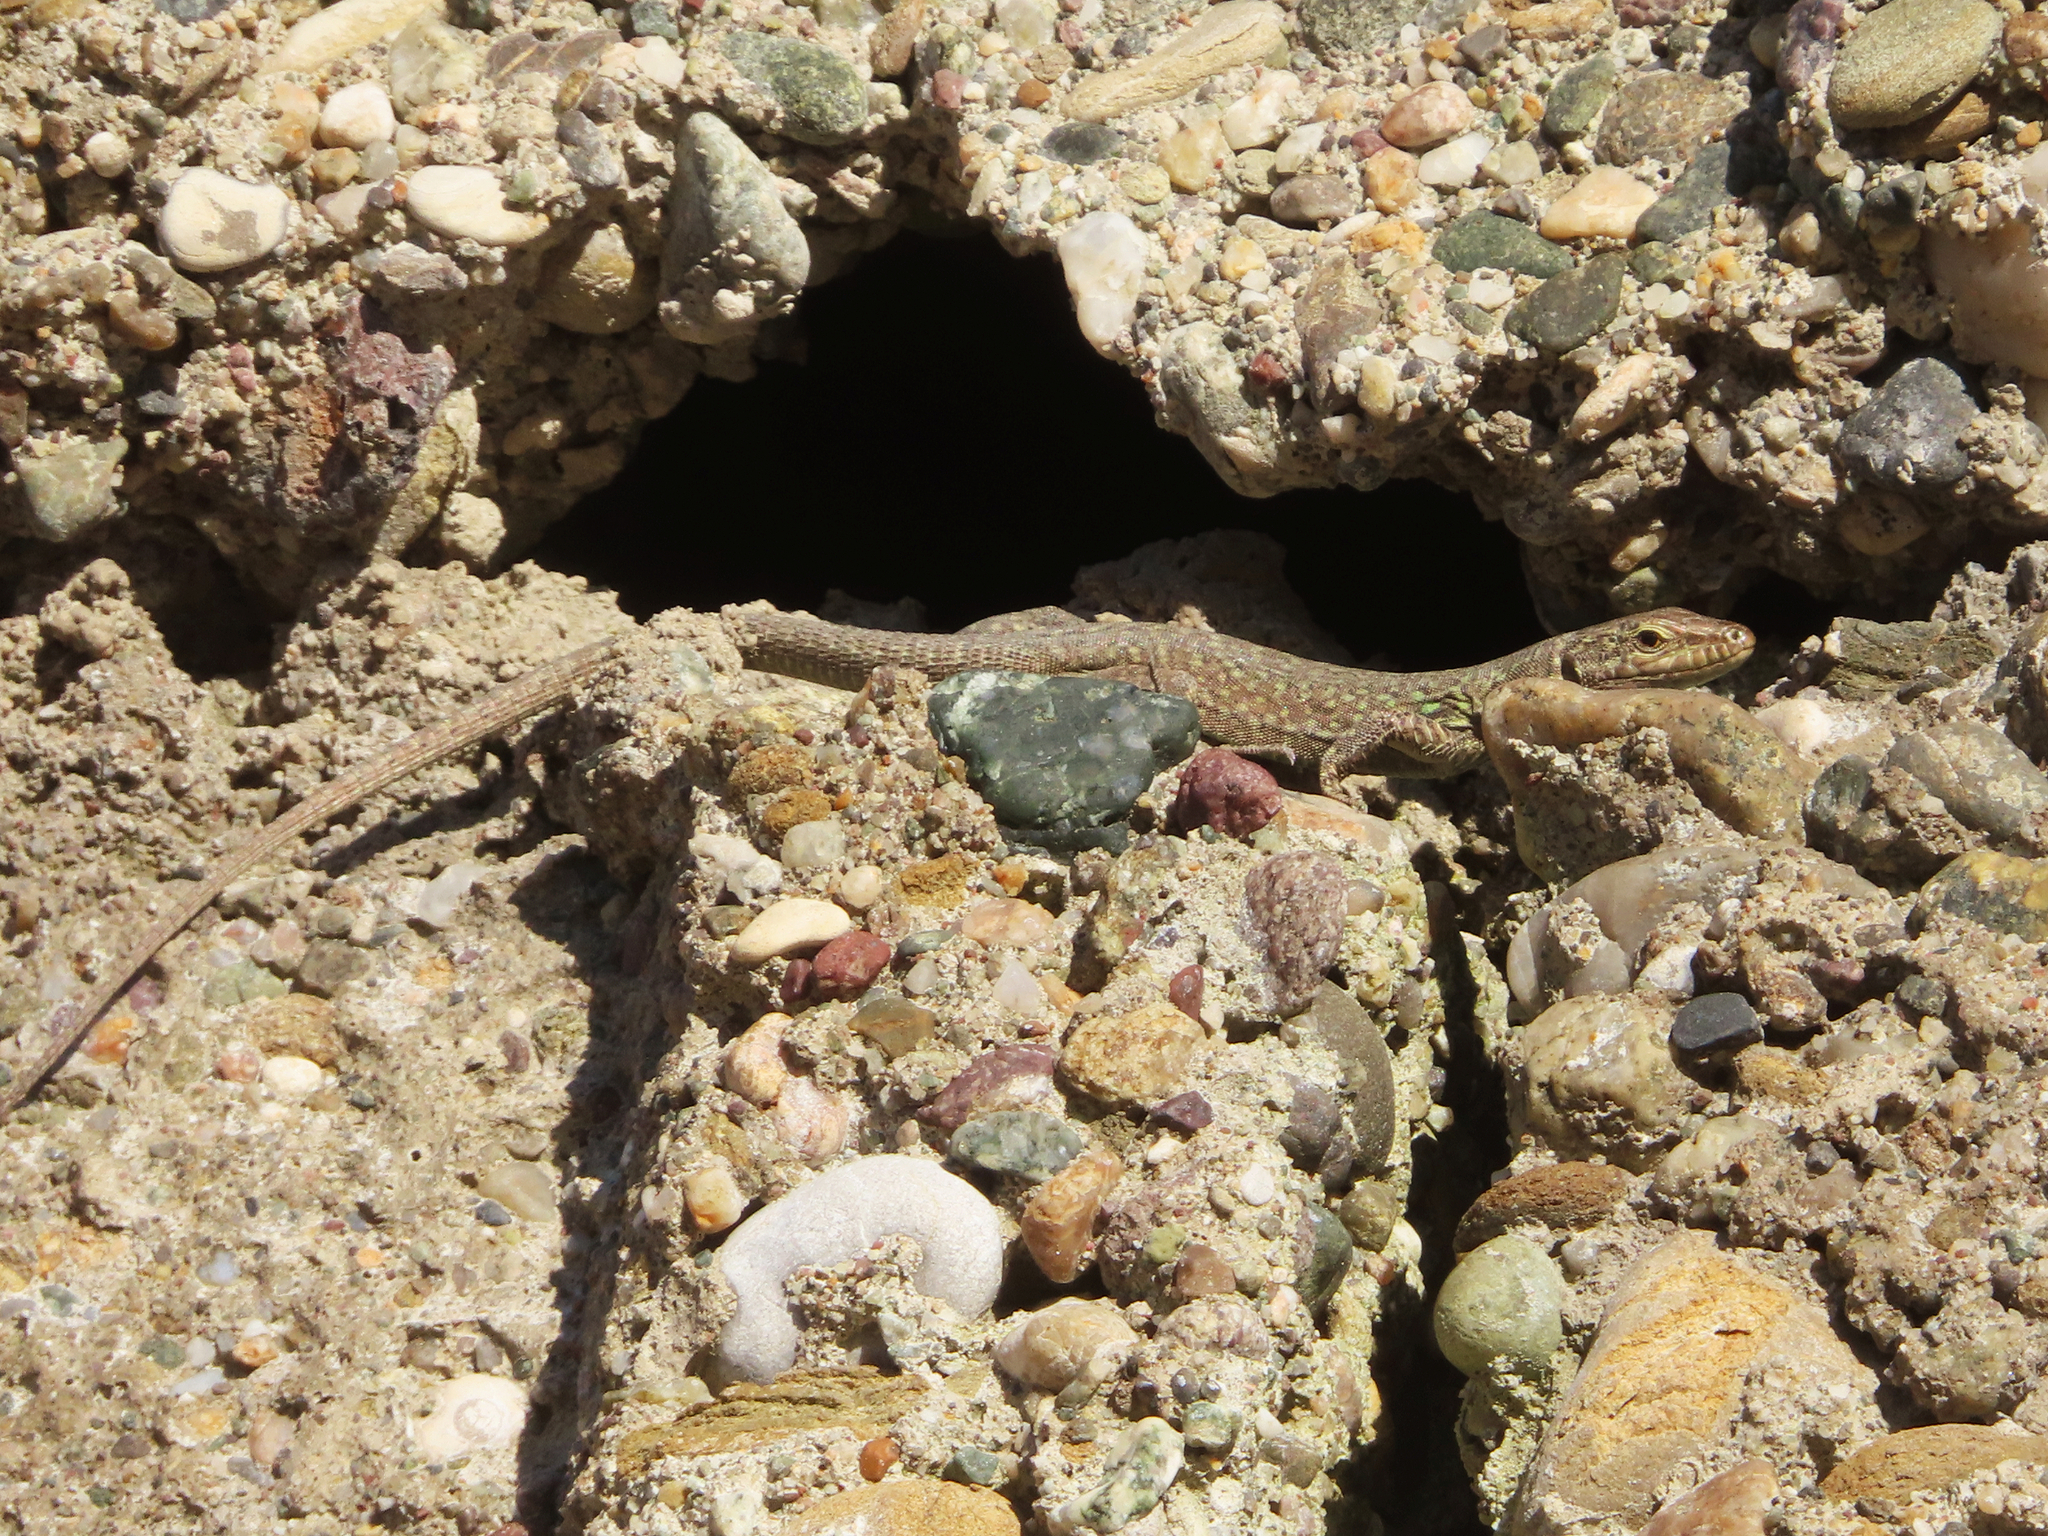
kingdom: Animalia
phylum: Chordata
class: Squamata
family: Lacertidae
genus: Podarcis
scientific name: Podarcis siculus
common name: Italian wall lizard
